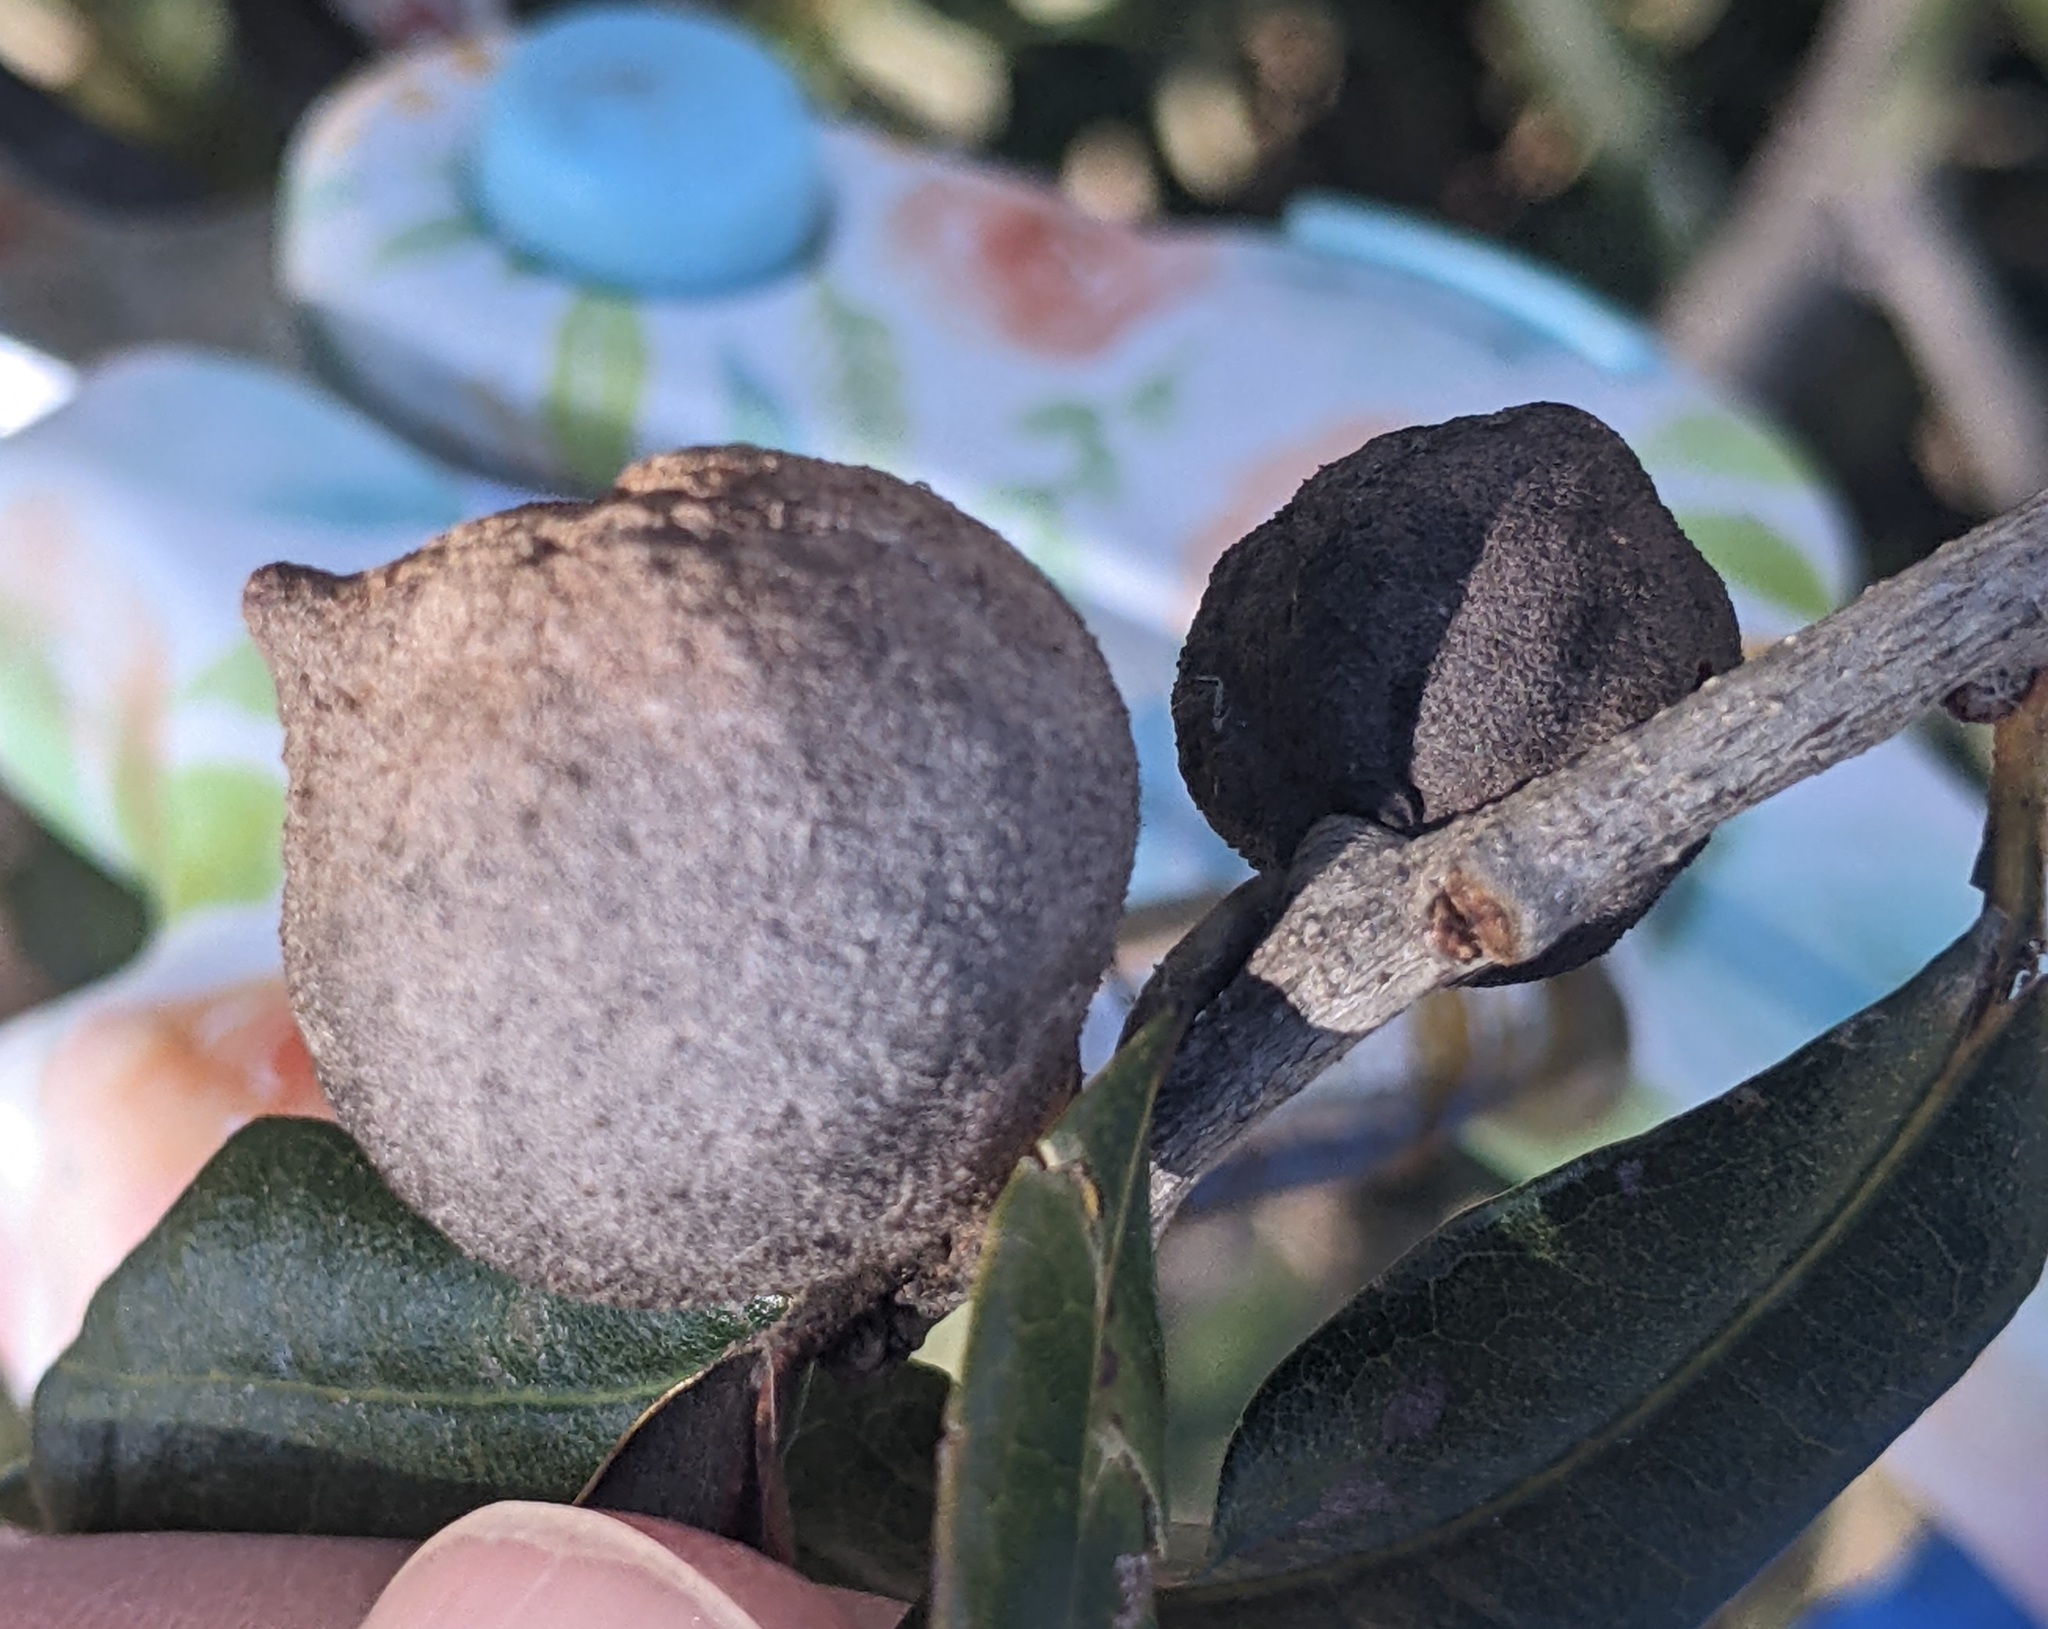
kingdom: Animalia
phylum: Arthropoda
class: Insecta
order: Hymenoptera
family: Cynipidae
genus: Disholcaspis
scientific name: Disholcaspis
